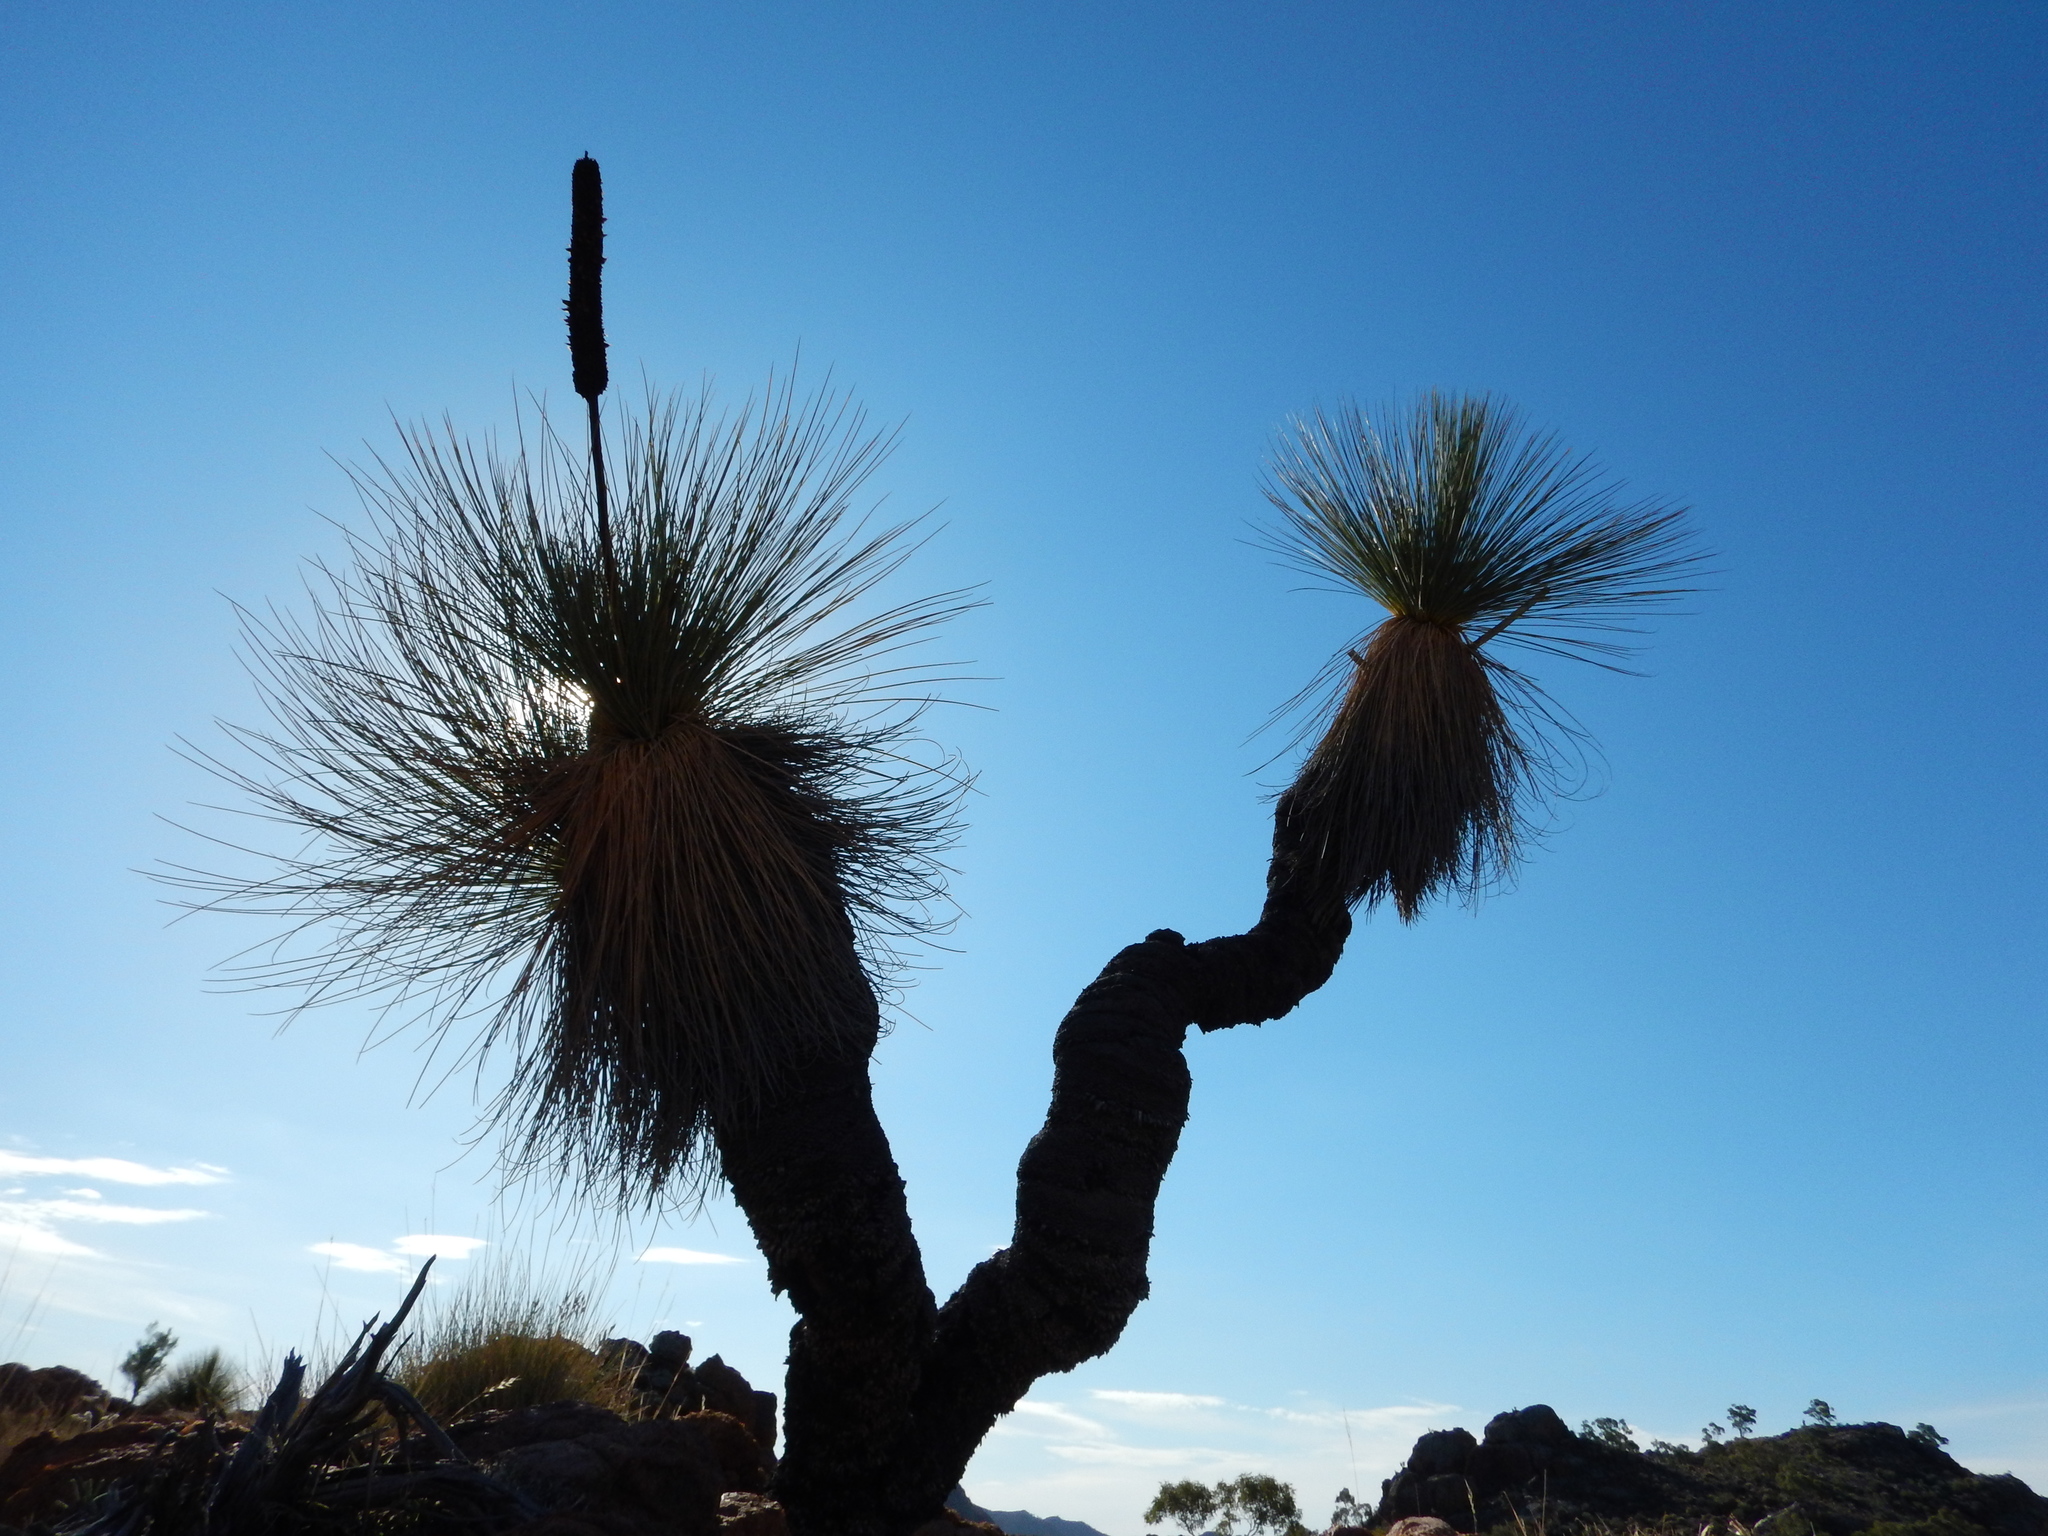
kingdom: Plantae
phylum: Tracheophyta
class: Liliopsida
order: Asparagales
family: Asphodelaceae
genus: Xanthorrhoea
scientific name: Xanthorrhoea quadrangulata
